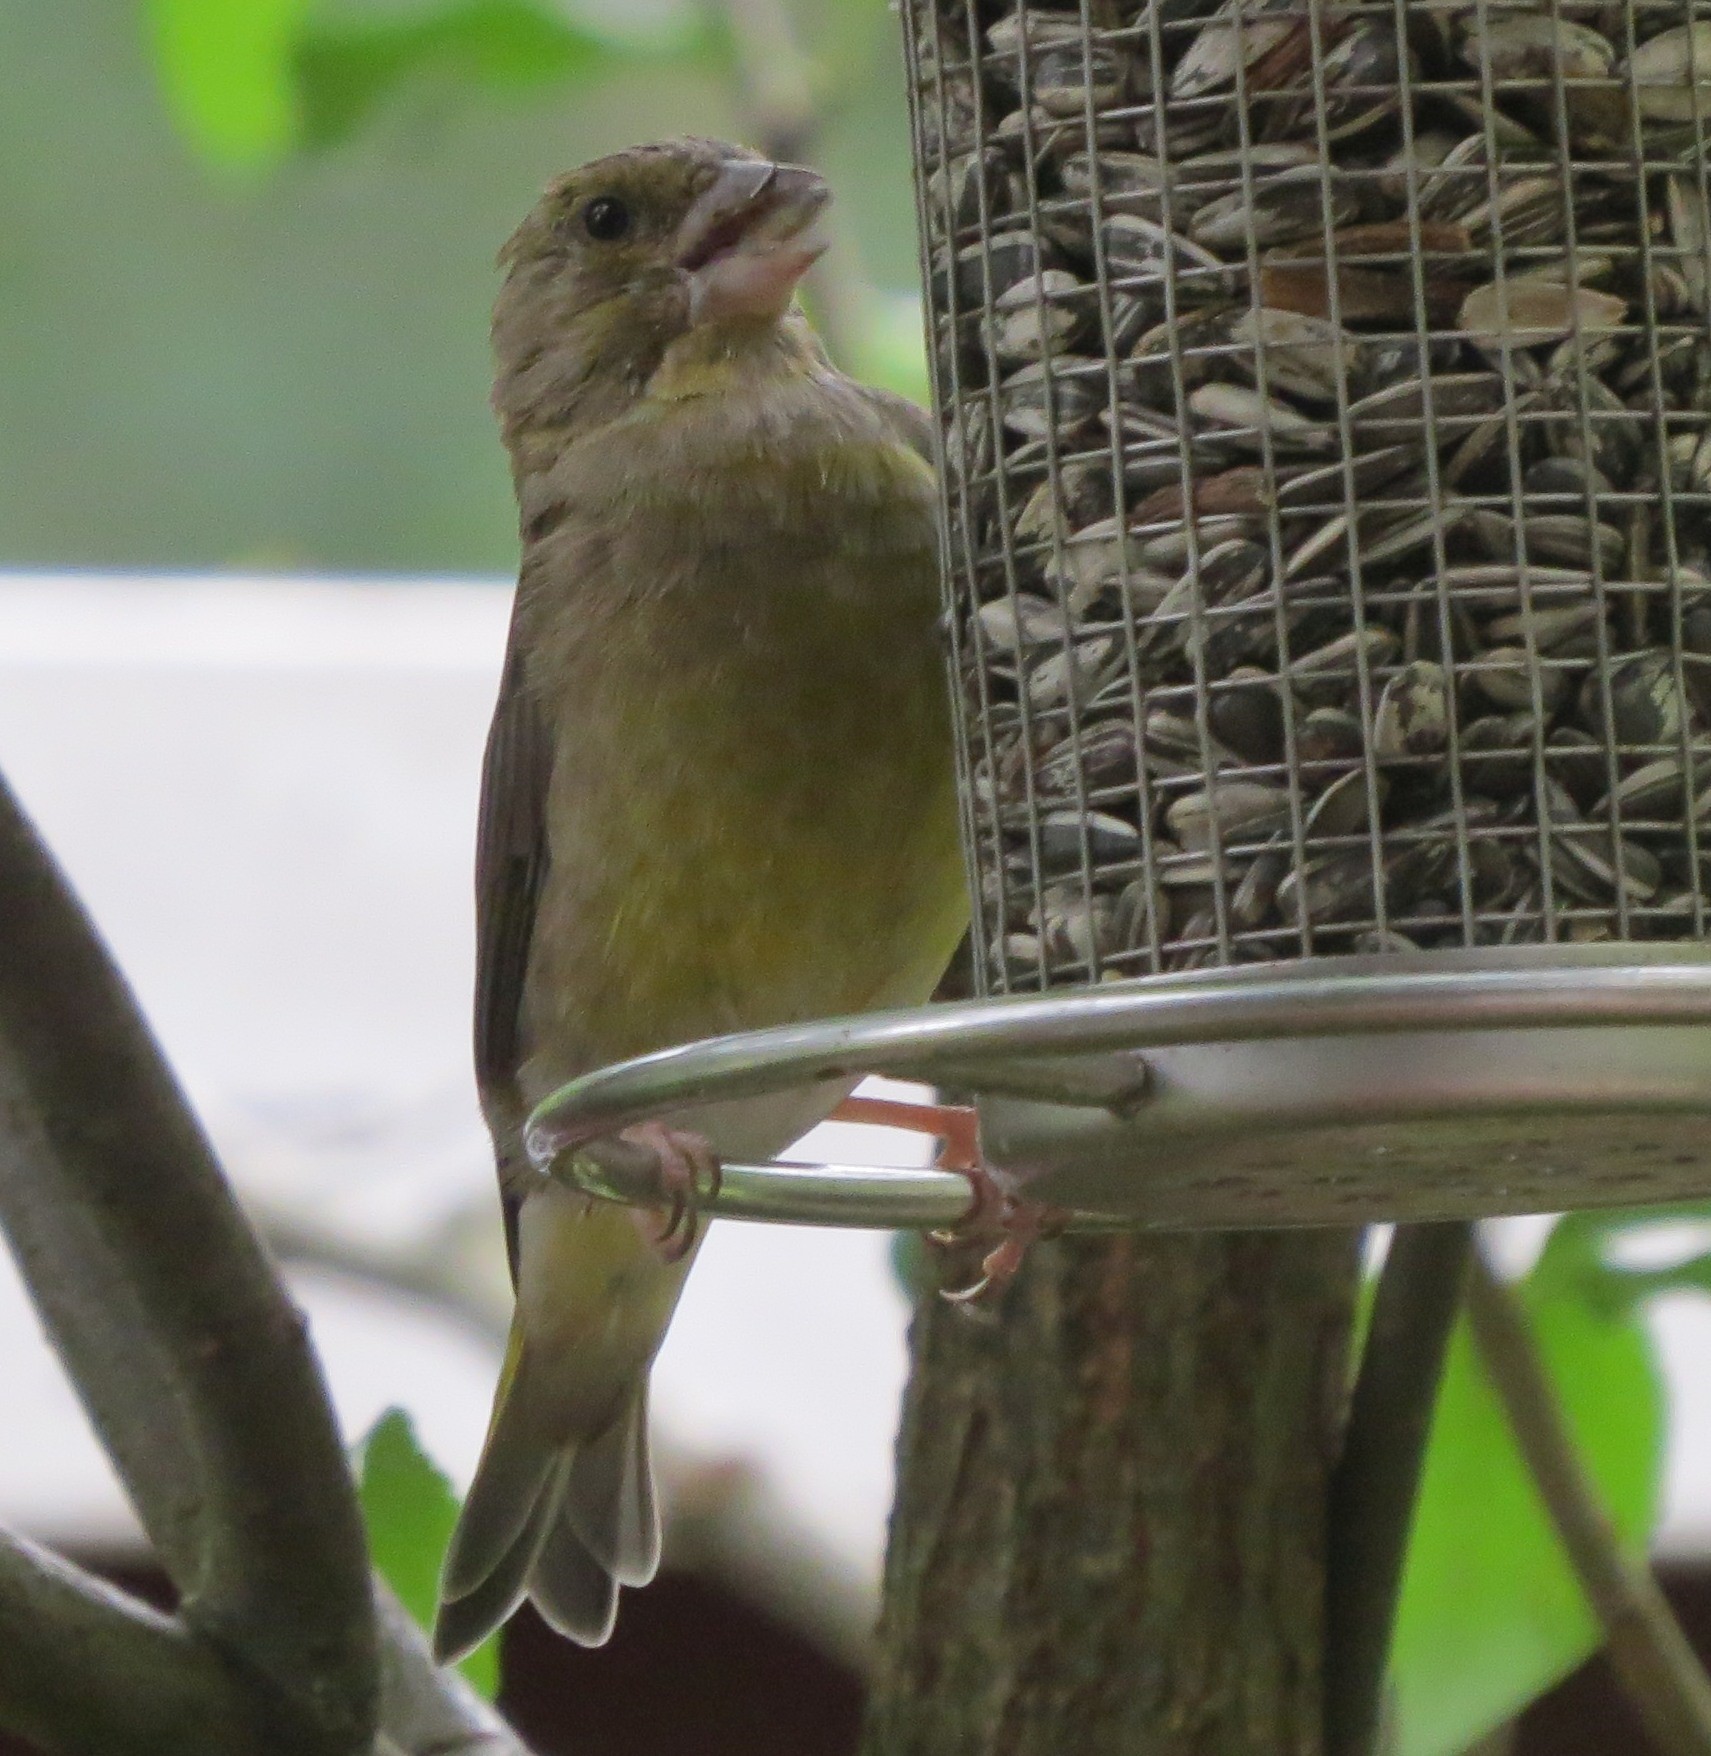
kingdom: Plantae
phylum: Tracheophyta
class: Liliopsida
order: Poales
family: Poaceae
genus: Chloris
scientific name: Chloris chloris
